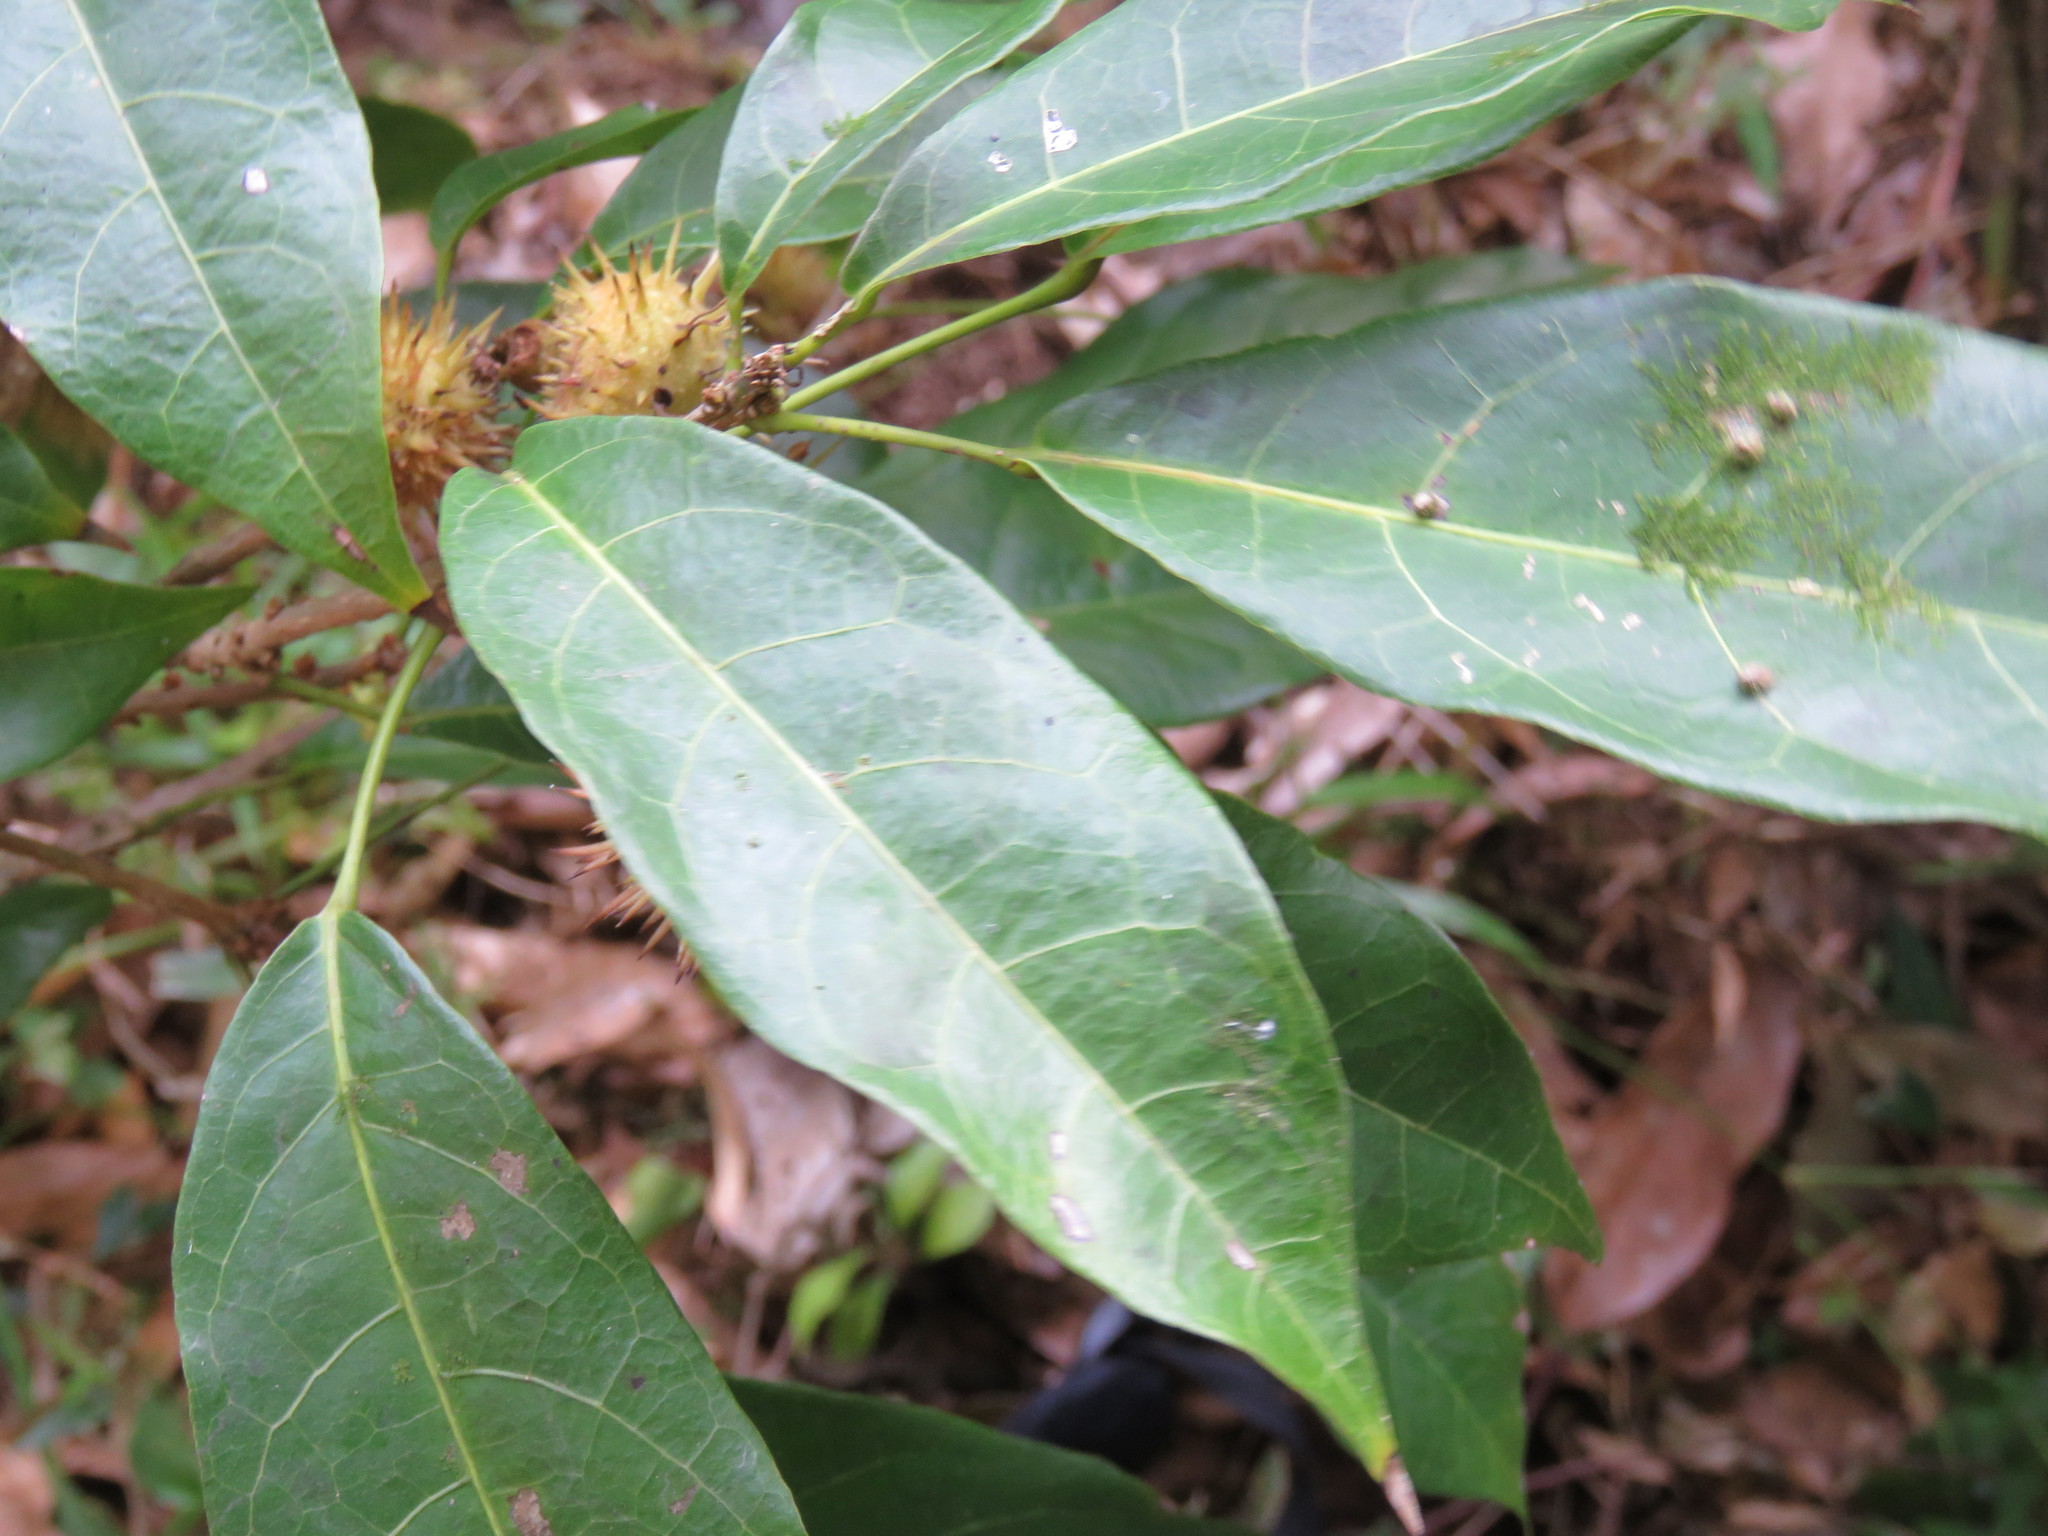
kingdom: Plantae
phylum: Tracheophyta
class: Magnoliopsida
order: Oxalidales
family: Elaeocarpaceae
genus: Sloanea
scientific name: Sloanea petenensis
